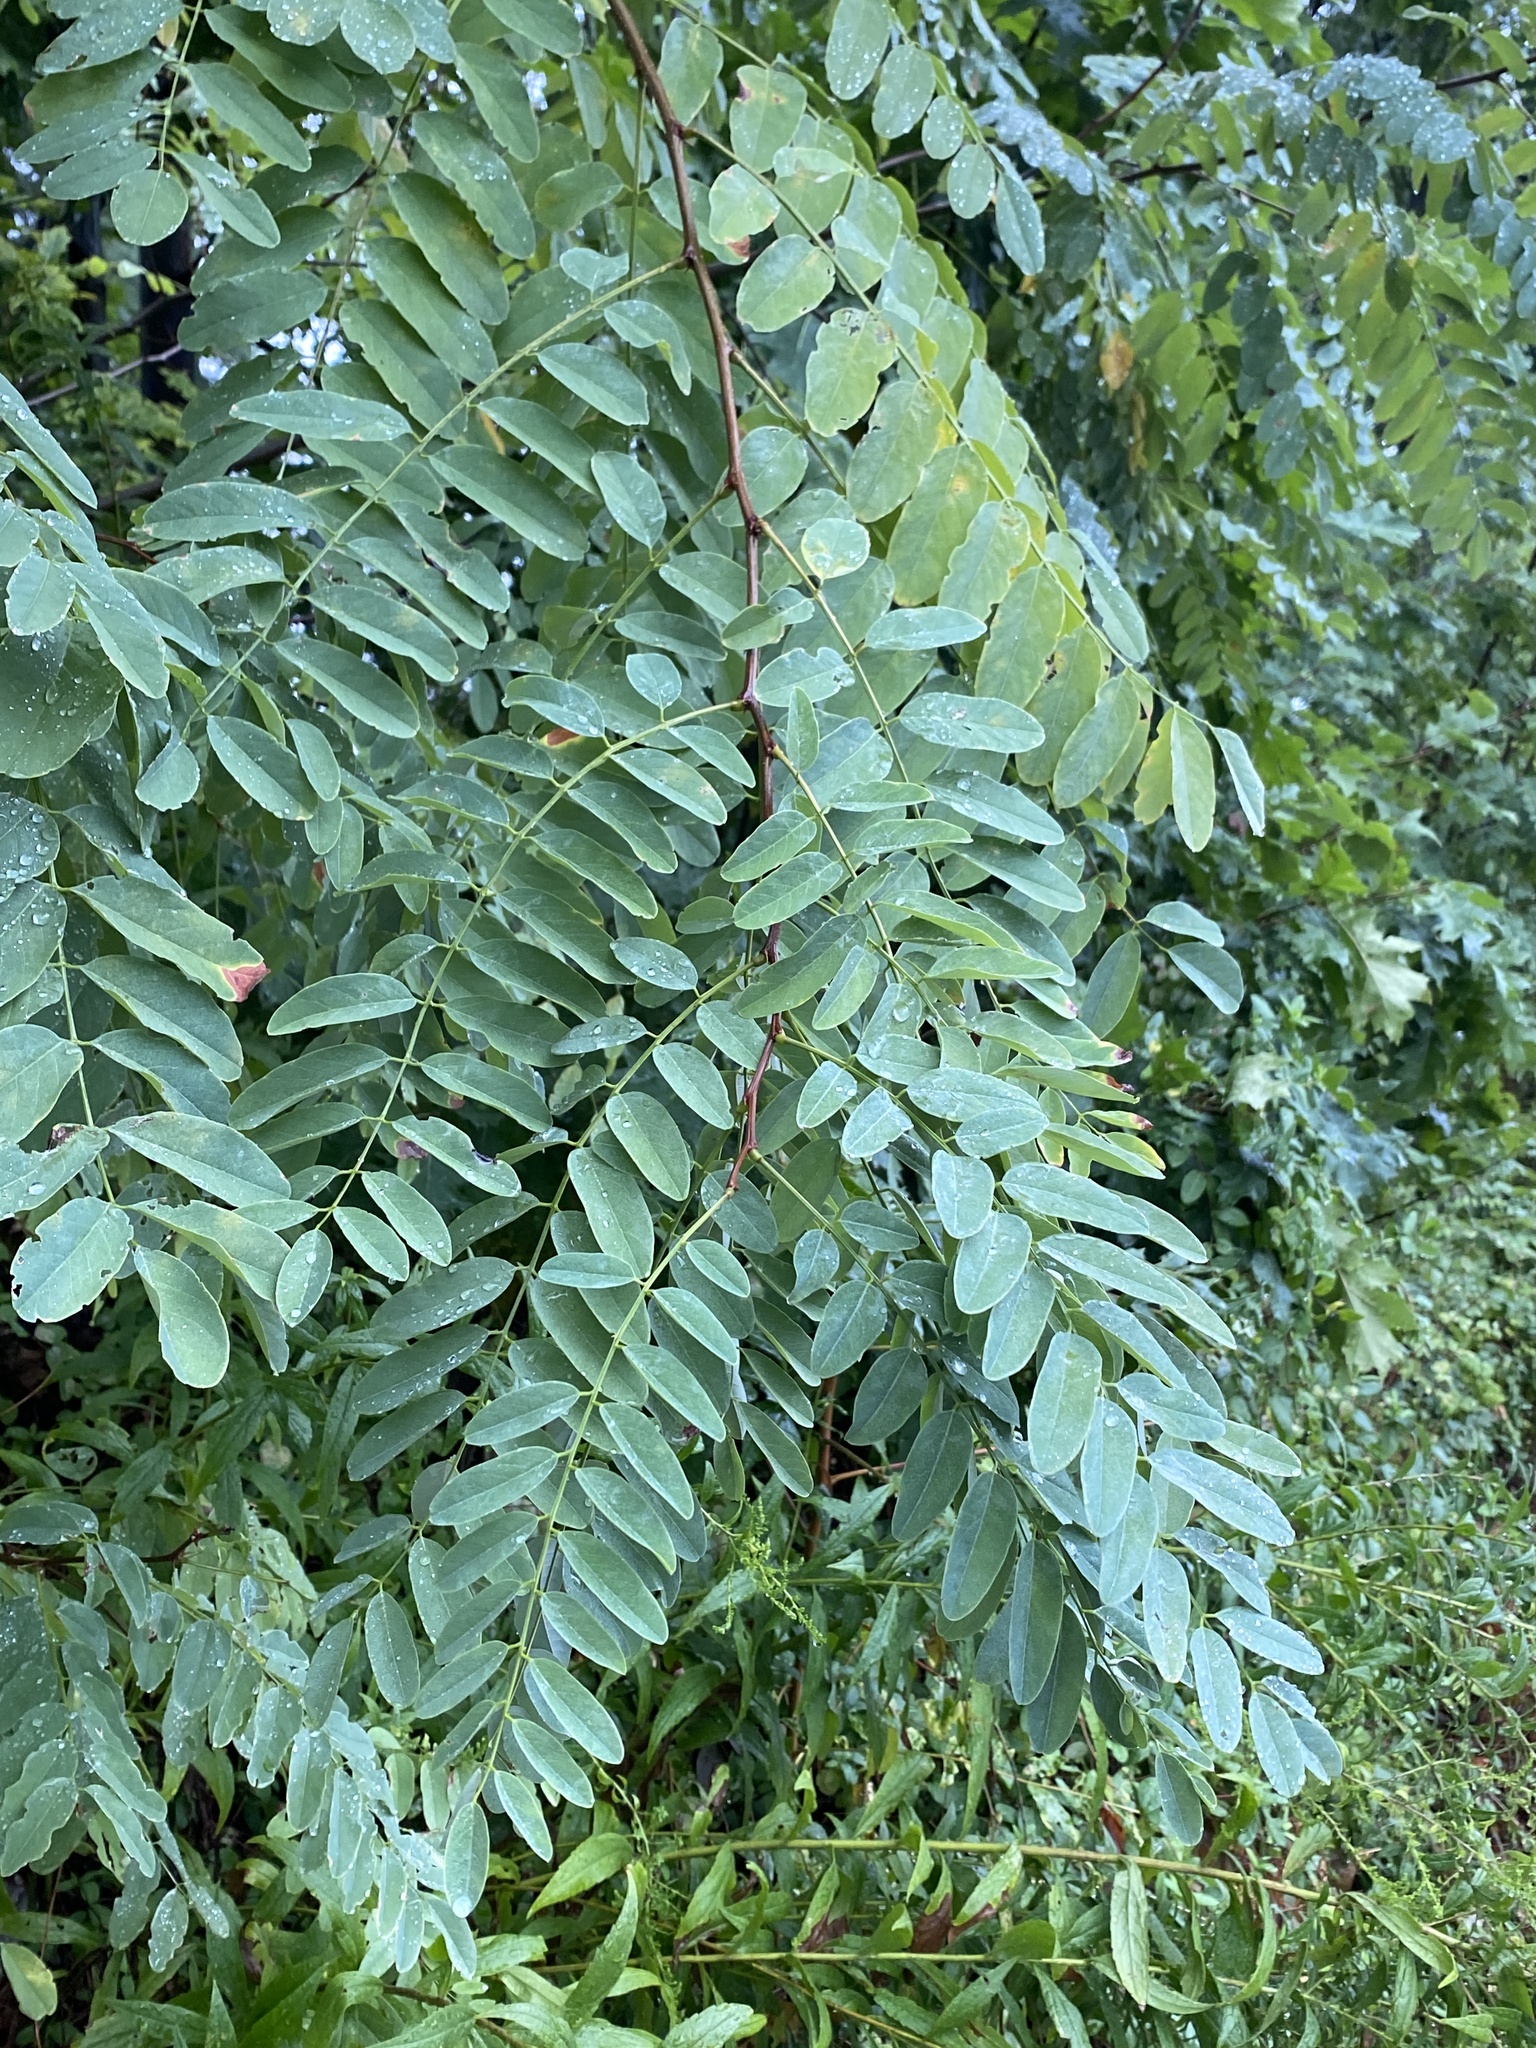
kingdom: Plantae
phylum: Tracheophyta
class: Magnoliopsida
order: Fabales
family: Fabaceae
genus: Robinia
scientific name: Robinia pseudoacacia
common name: Black locust
